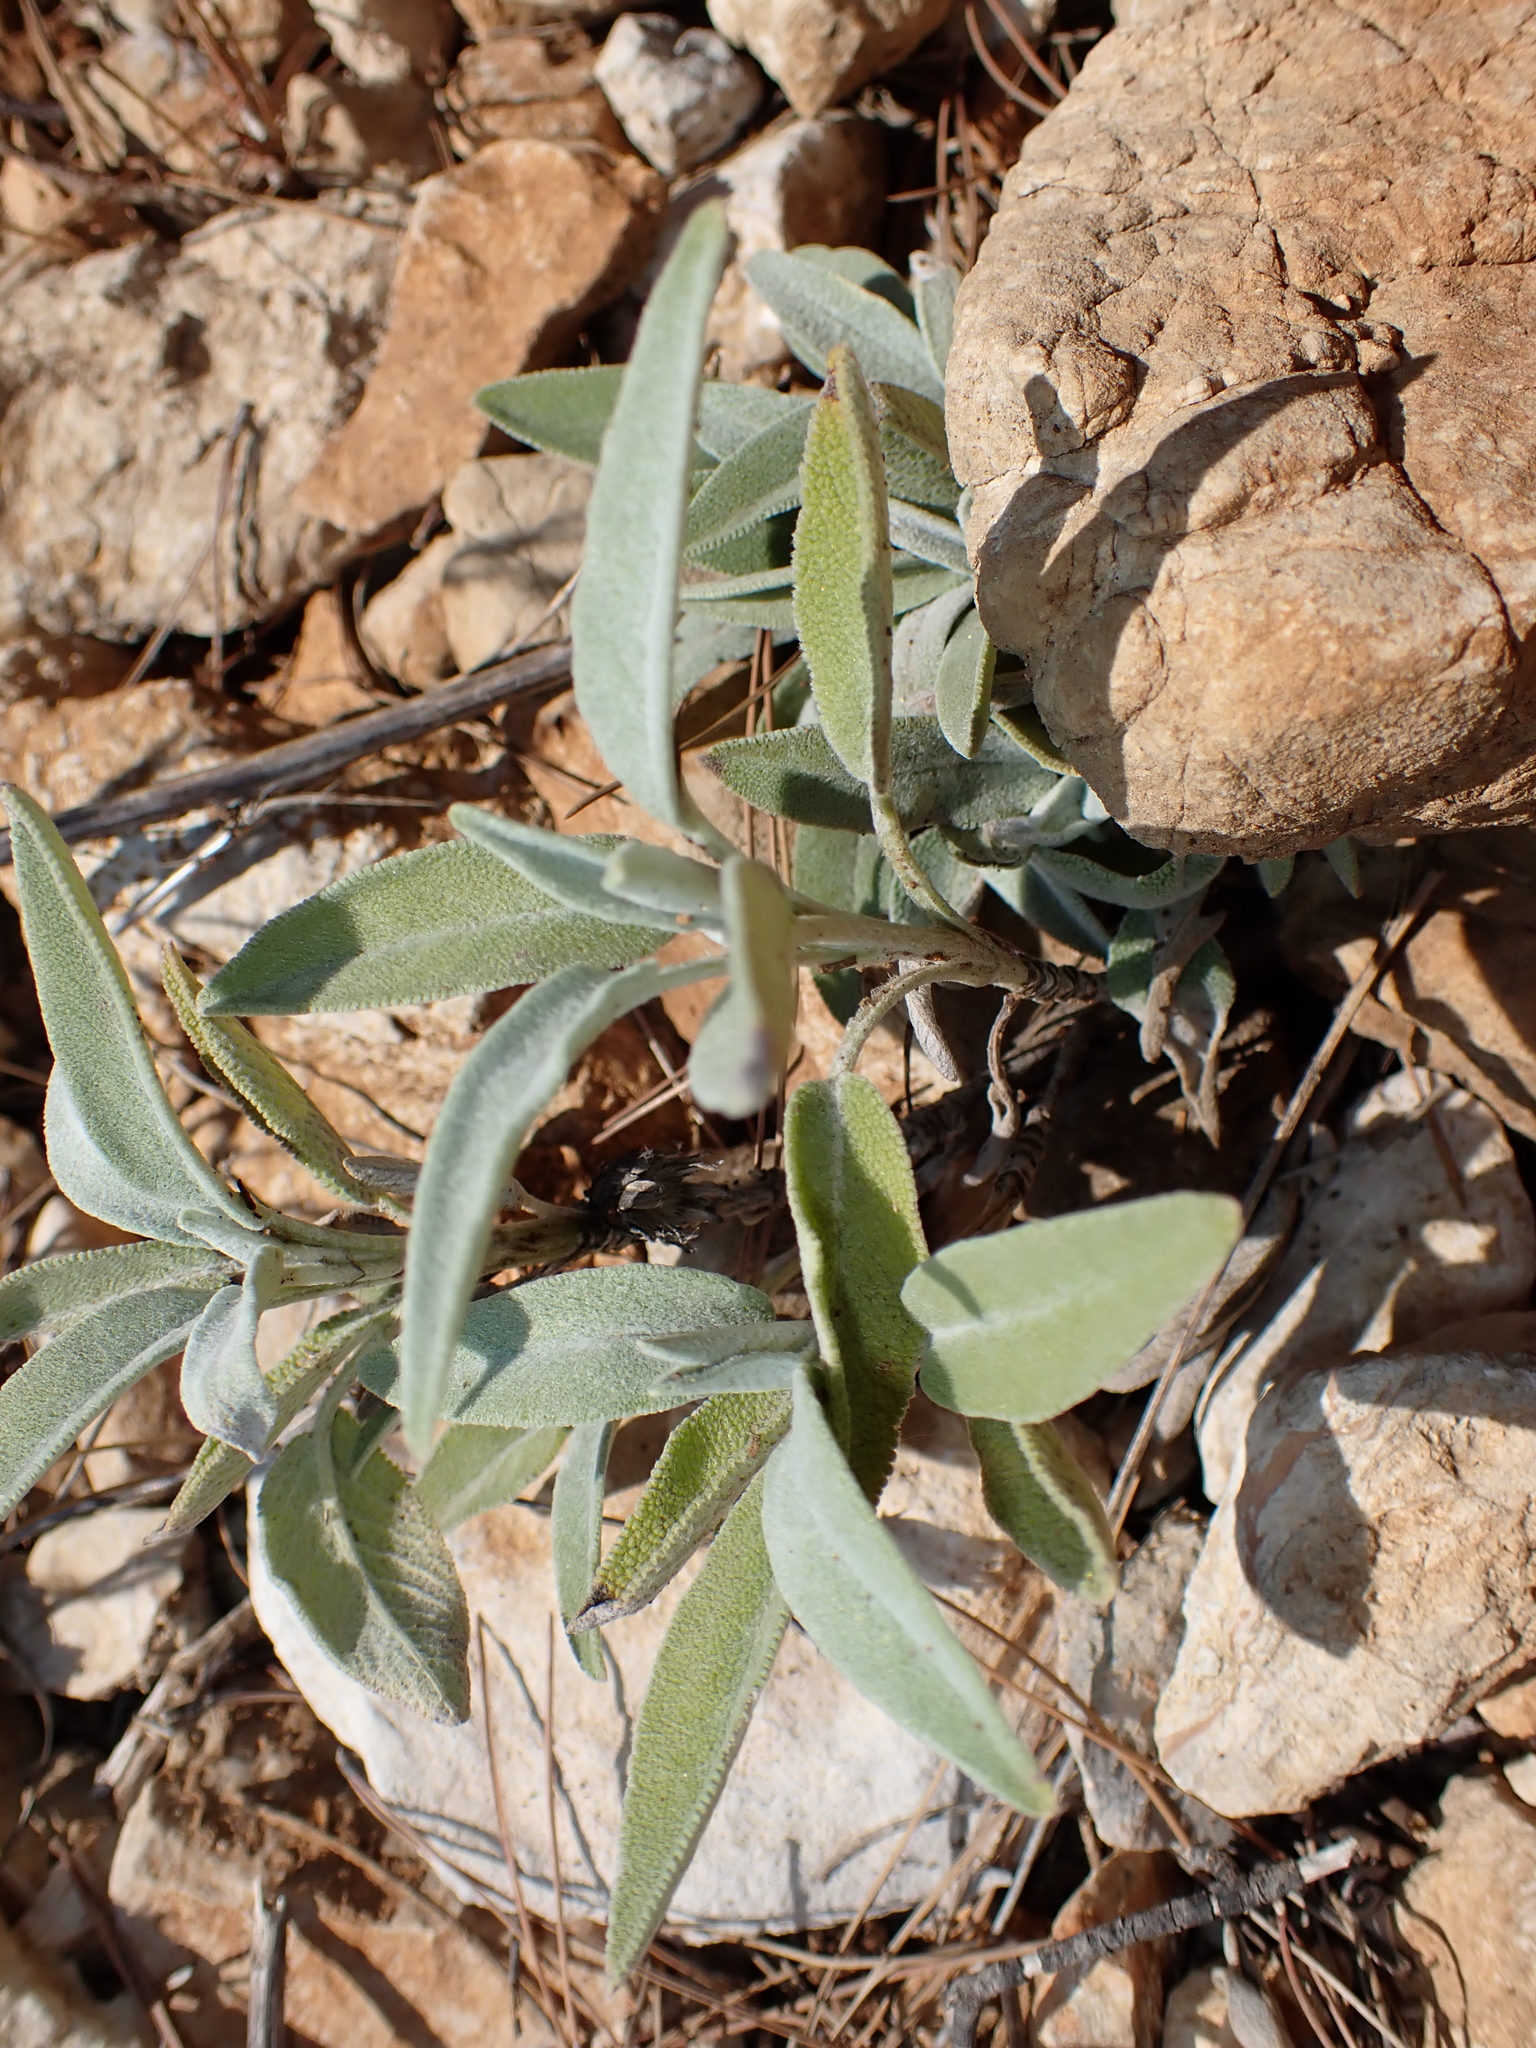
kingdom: Plantae
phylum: Tracheophyta
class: Magnoliopsida
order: Lamiales
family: Lamiaceae
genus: Salvia
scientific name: Salvia officinalis
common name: Sage
